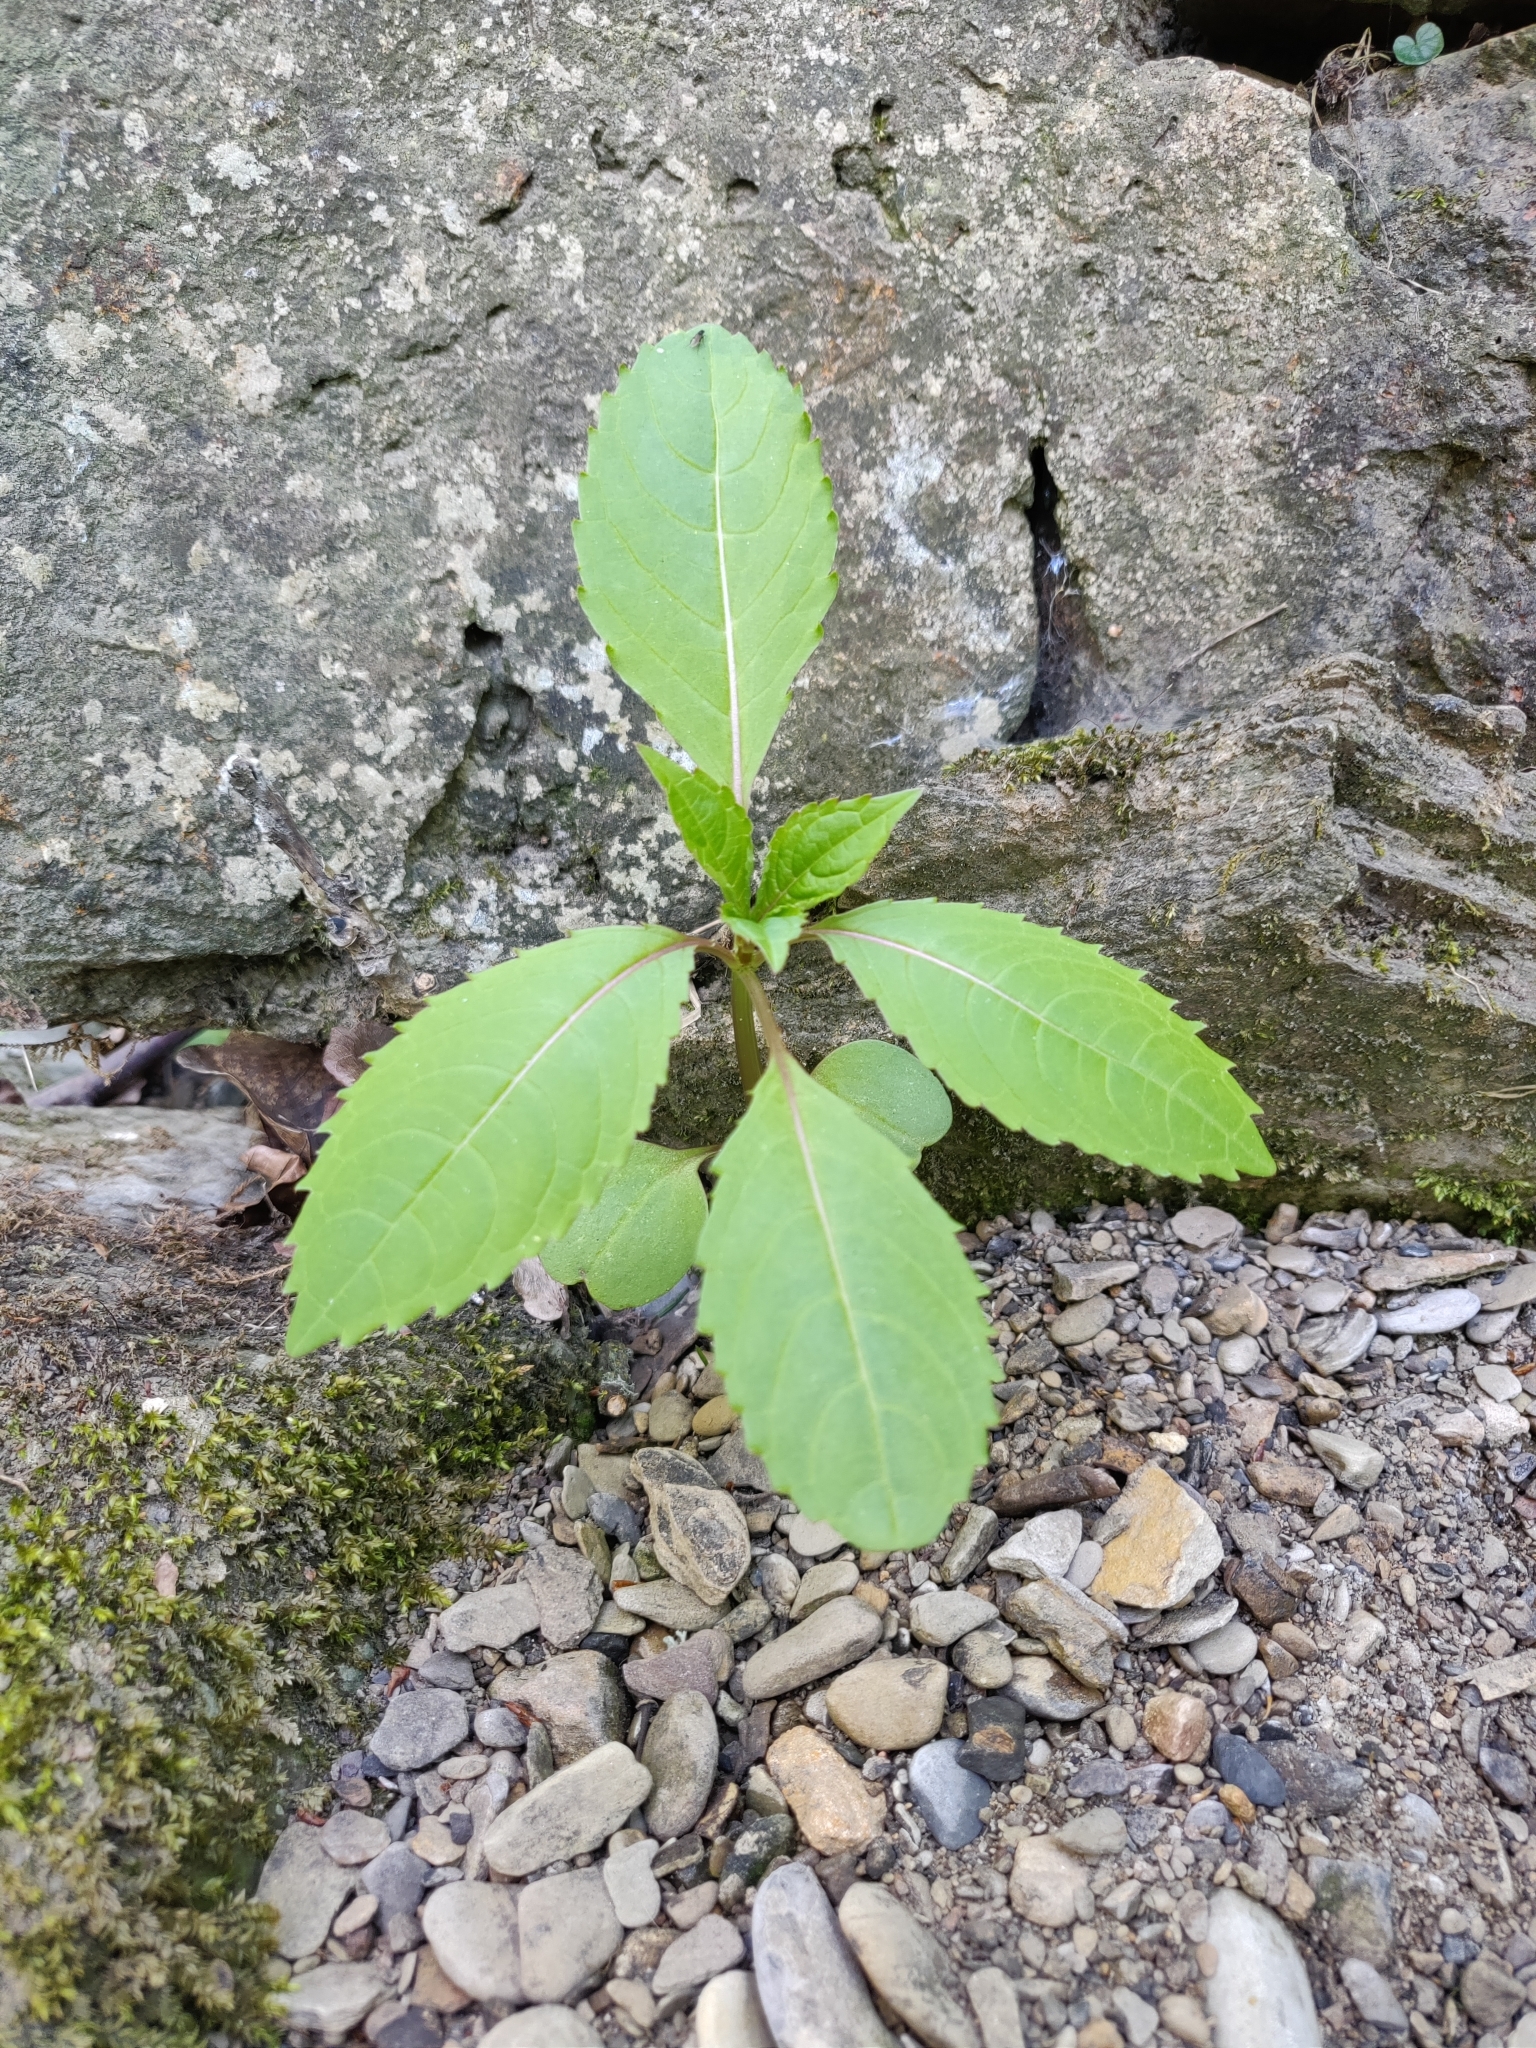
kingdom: Plantae
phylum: Tracheophyta
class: Magnoliopsida
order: Ericales
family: Balsaminaceae
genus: Impatiens
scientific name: Impatiens glandulifera
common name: Himalayan balsam
